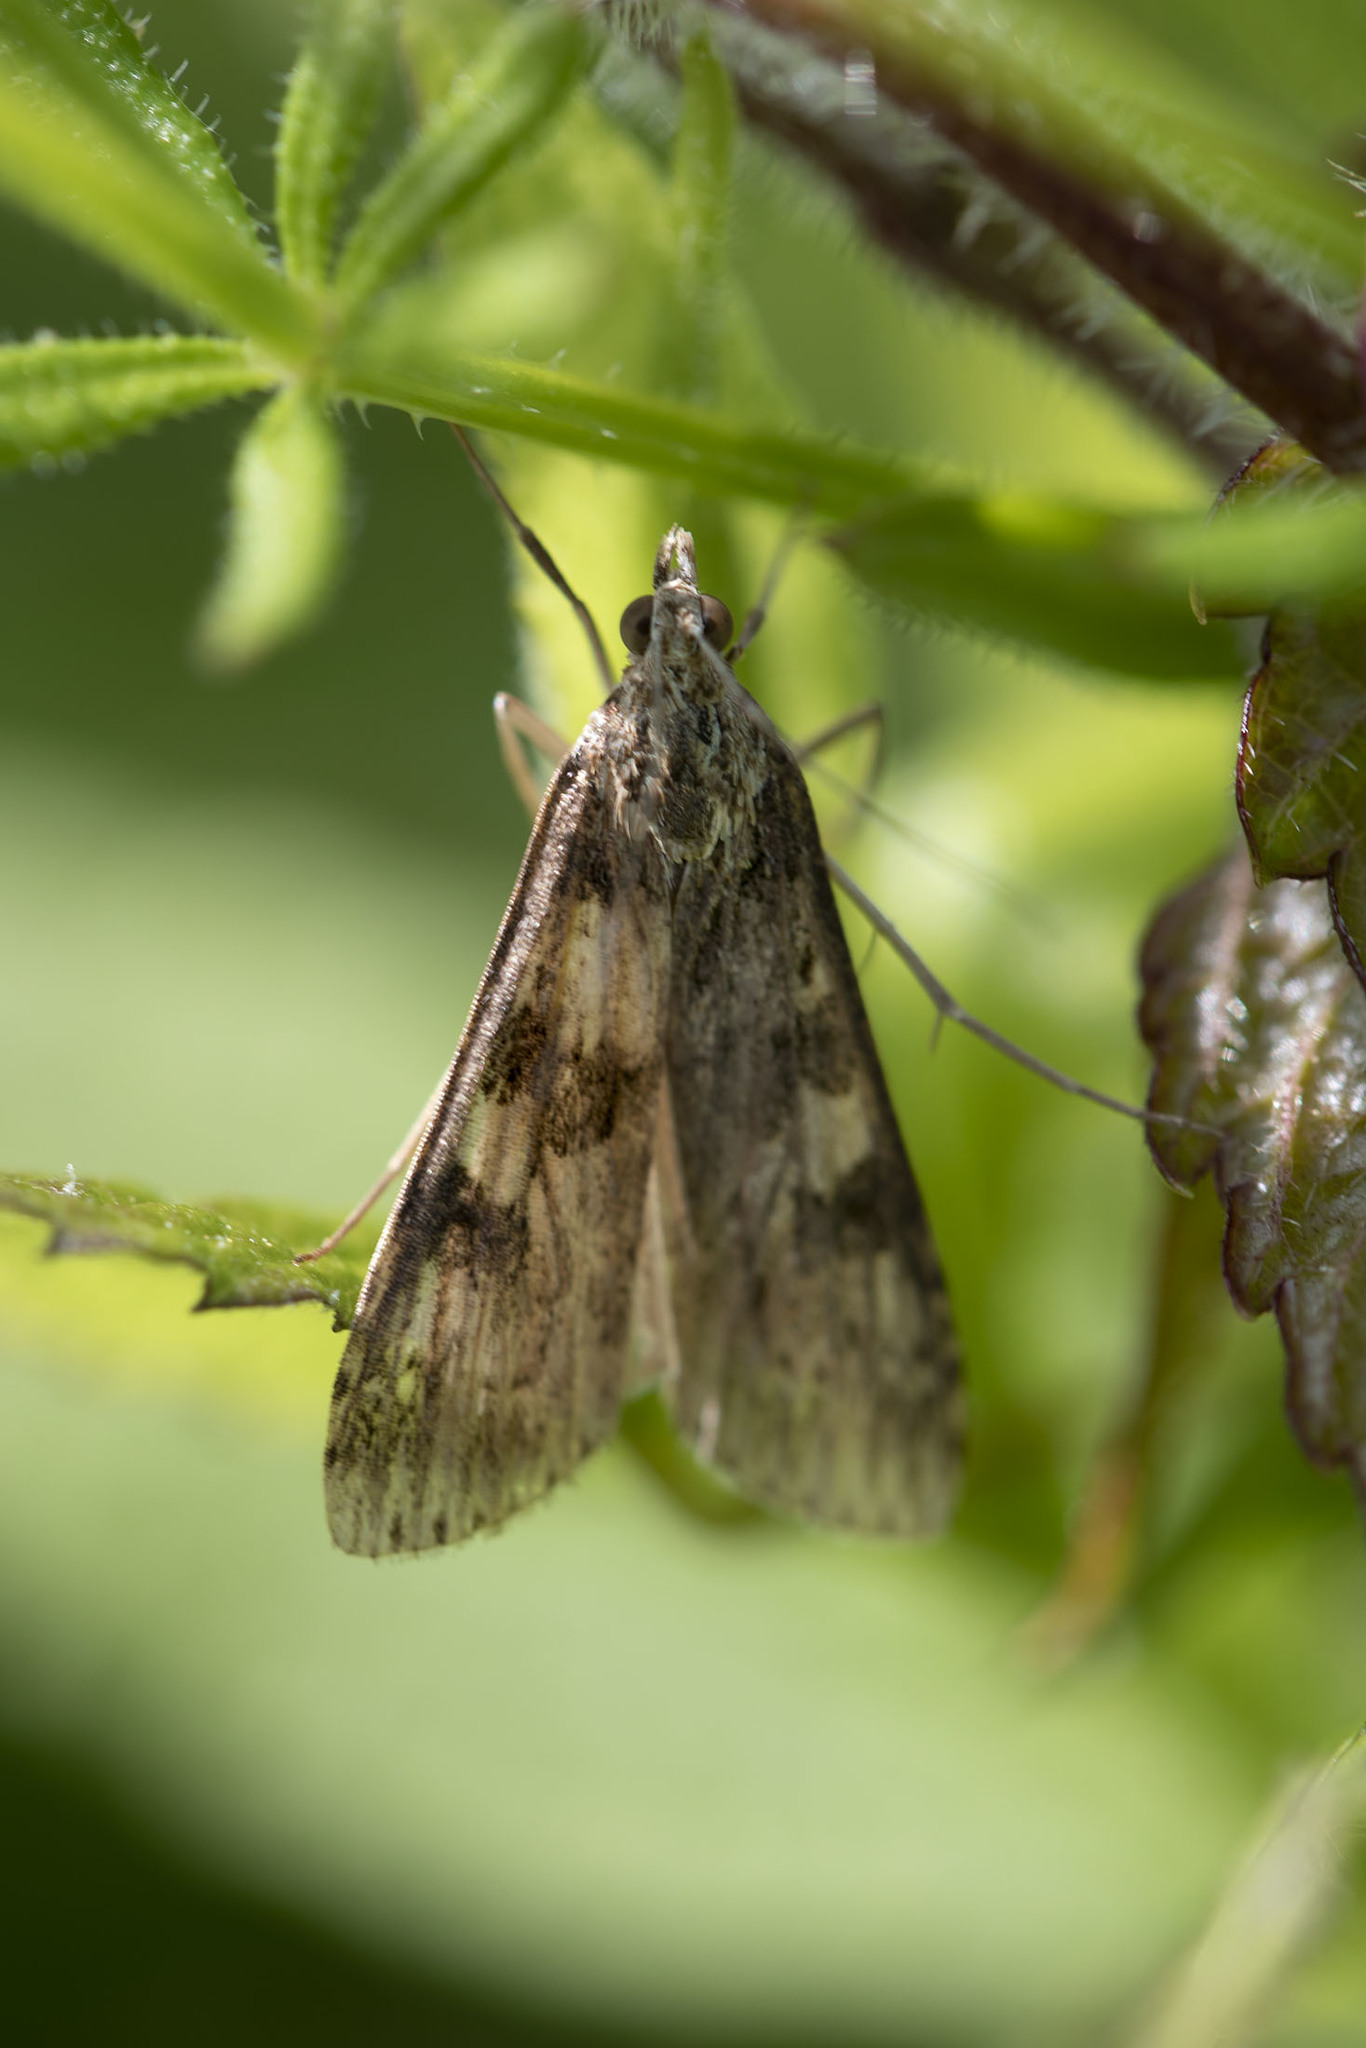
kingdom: Animalia
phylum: Arthropoda
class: Insecta
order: Lepidoptera
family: Crambidae
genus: Nomophila
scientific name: Nomophila nearctica
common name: American rush veneer
